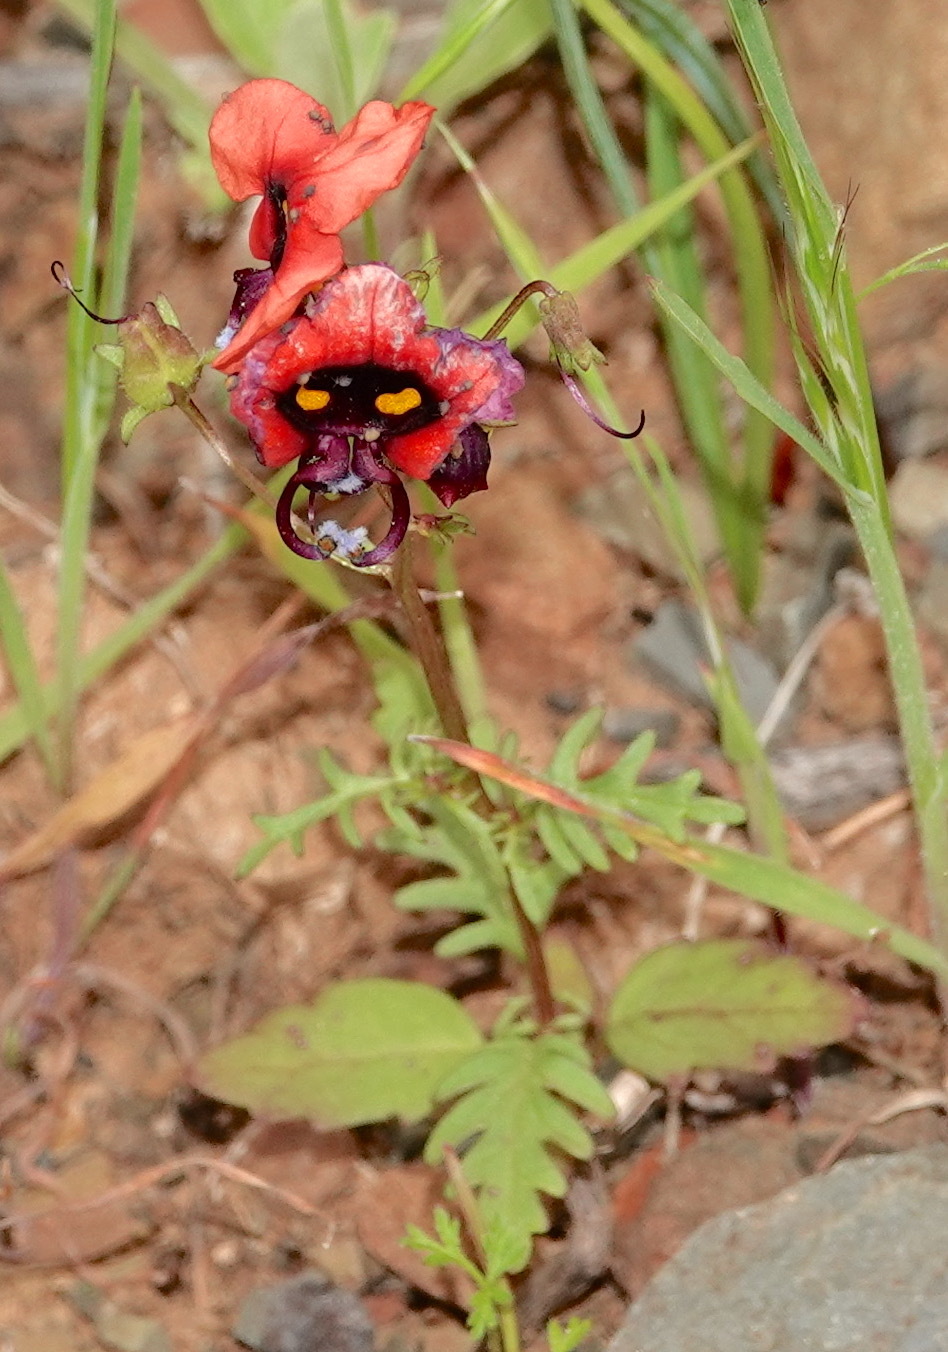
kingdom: Plantae
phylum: Tracheophyta
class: Magnoliopsida
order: Lamiales
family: Scrophulariaceae
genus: Alonsoa
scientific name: Alonsoa unilabiata
